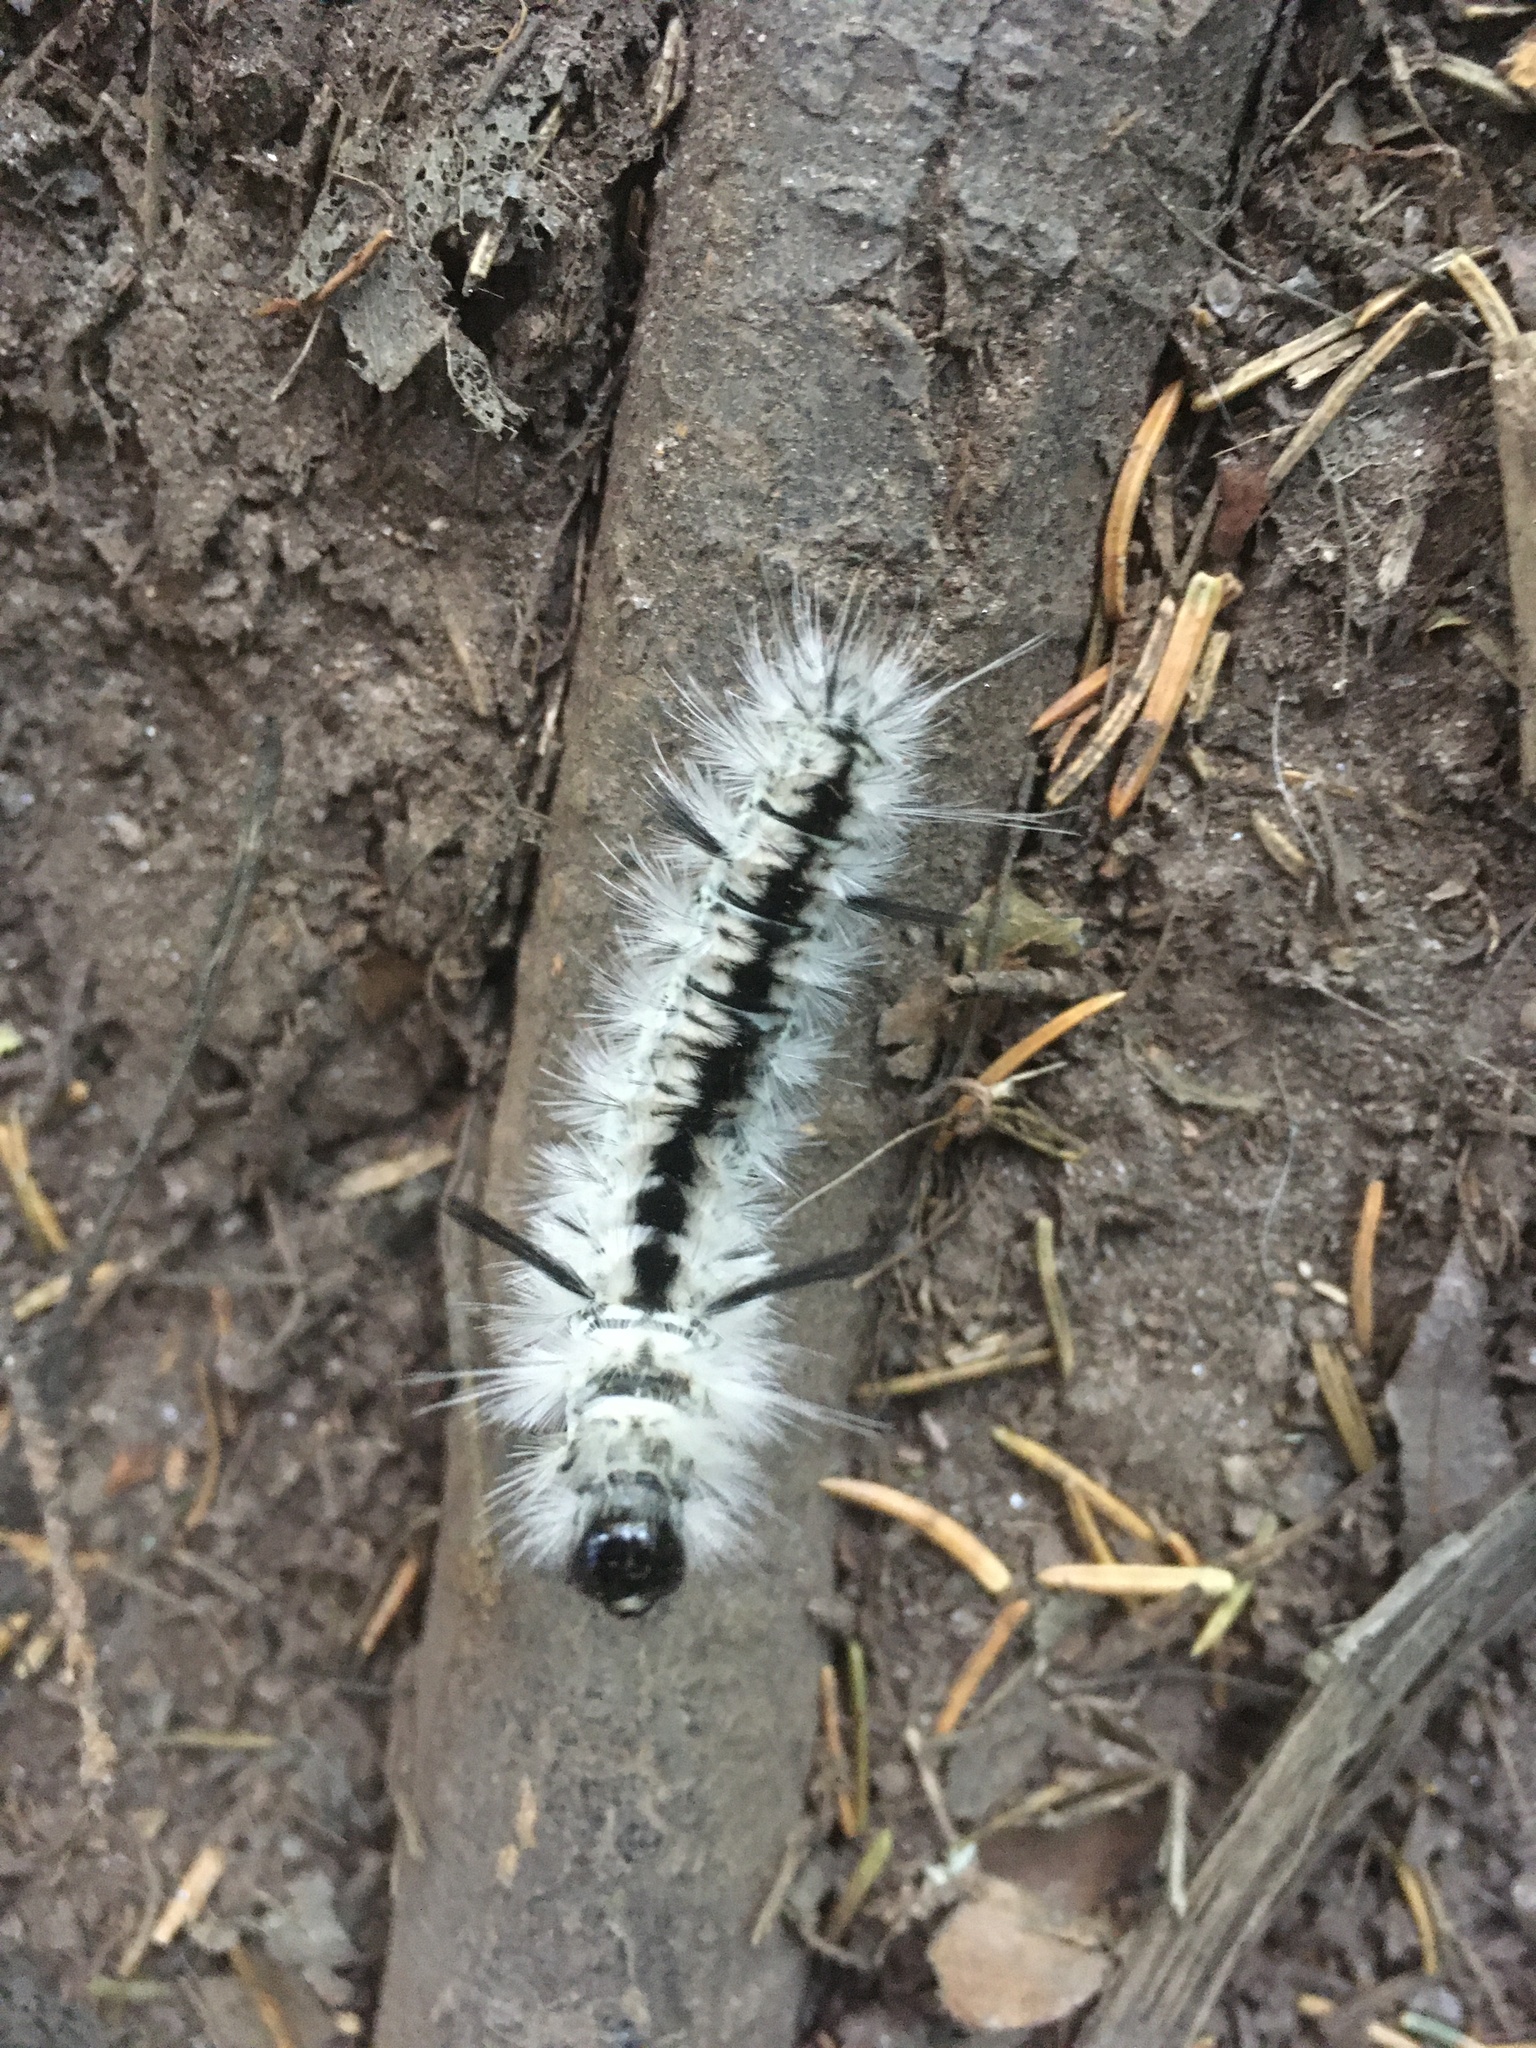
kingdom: Animalia
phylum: Arthropoda
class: Insecta
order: Lepidoptera
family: Erebidae
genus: Lophocampa
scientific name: Lophocampa caryae
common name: Hickory tussock moth
